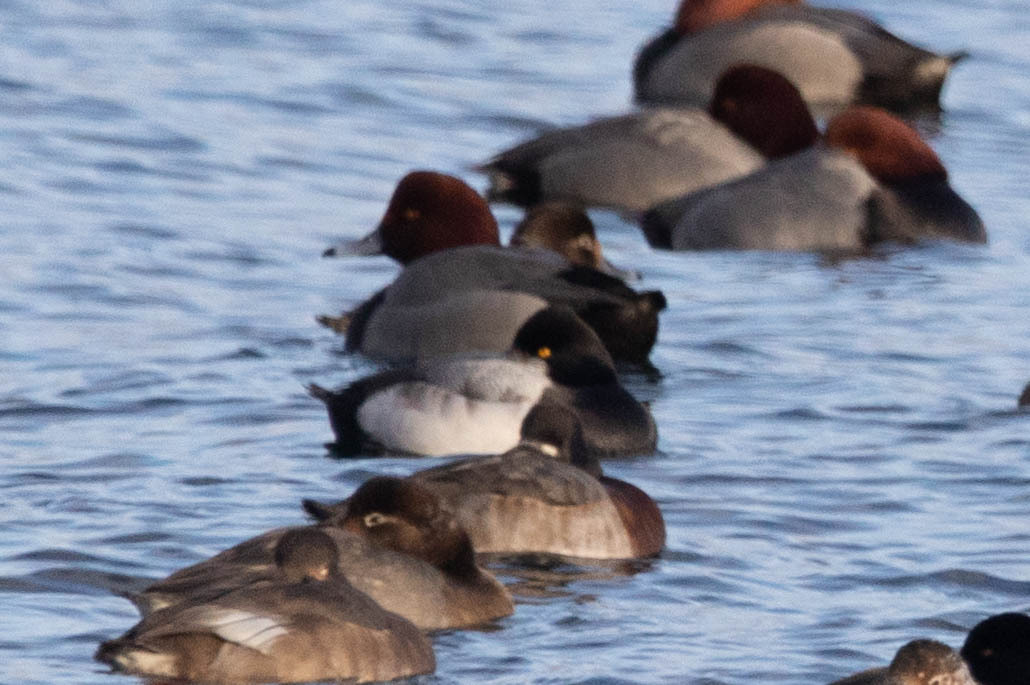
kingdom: Animalia
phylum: Chordata
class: Aves
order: Anseriformes
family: Anatidae
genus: Aythya
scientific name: Aythya affinis
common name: Lesser scaup
